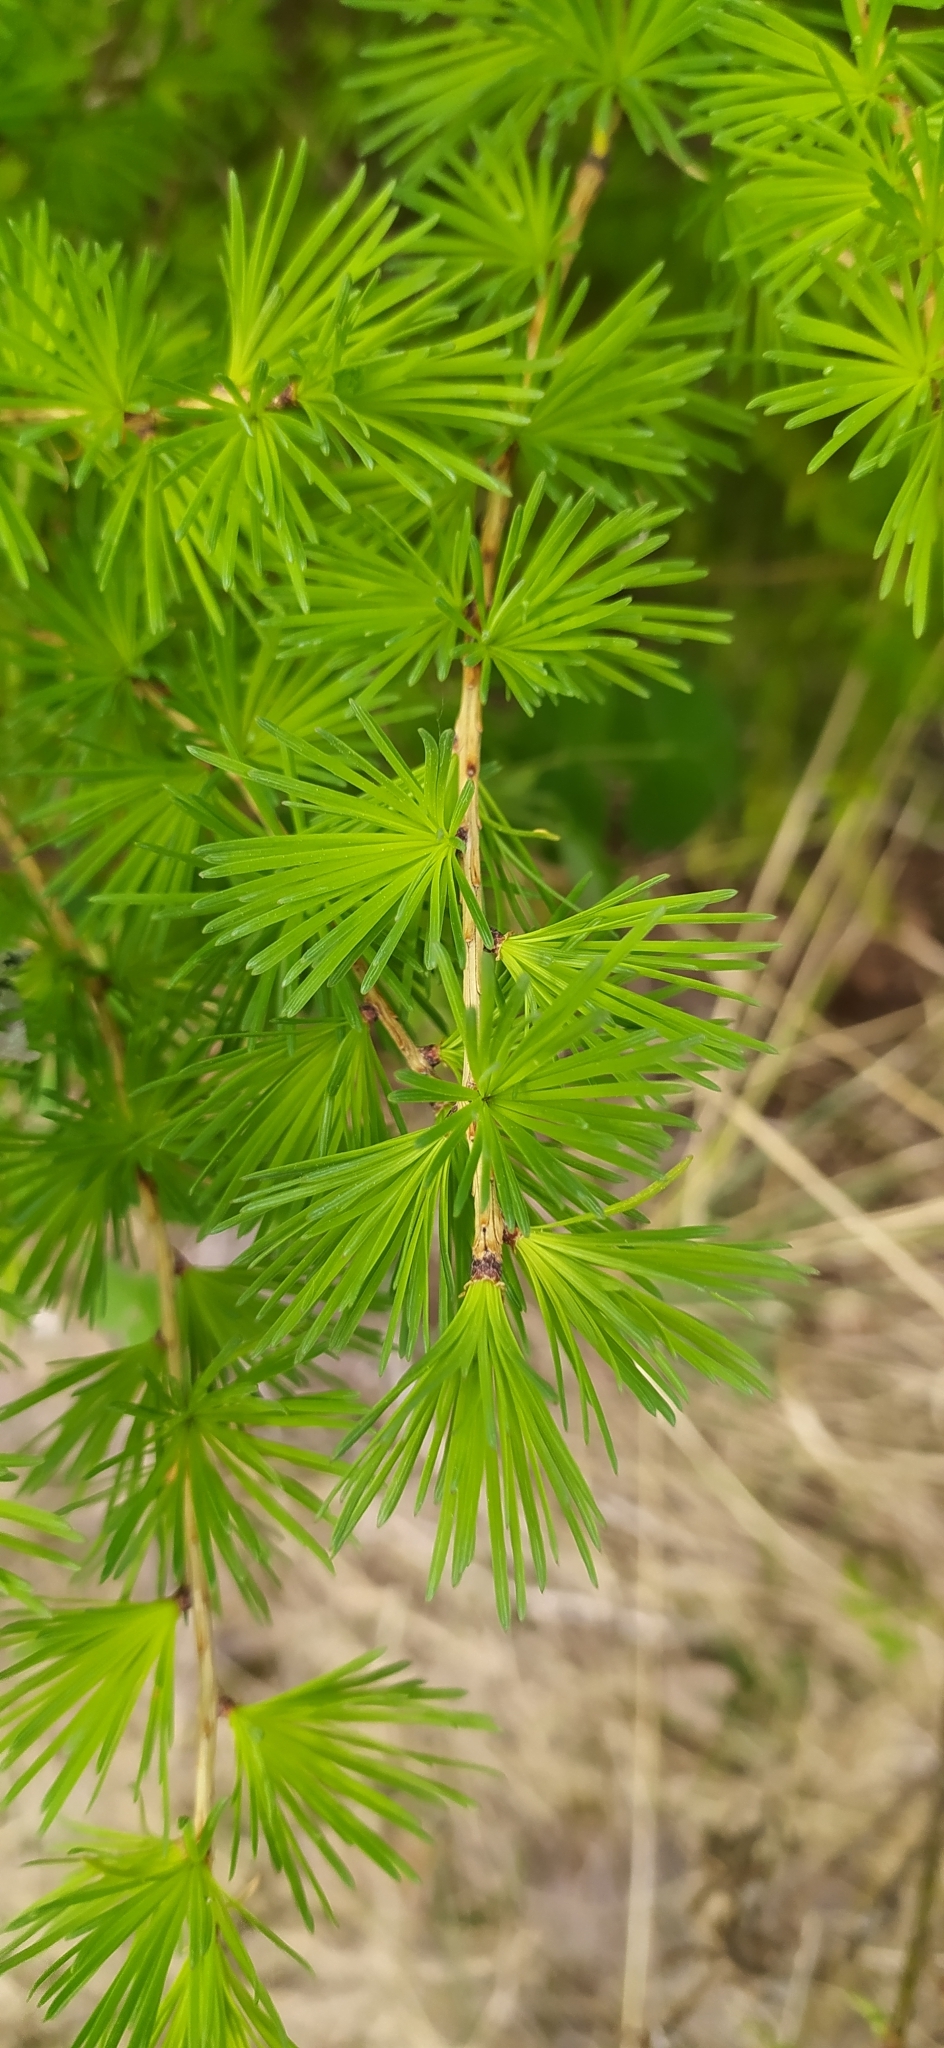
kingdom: Plantae
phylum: Tracheophyta
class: Pinopsida
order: Pinales
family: Pinaceae
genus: Larix
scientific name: Larix sibirica
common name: Siberian larch
